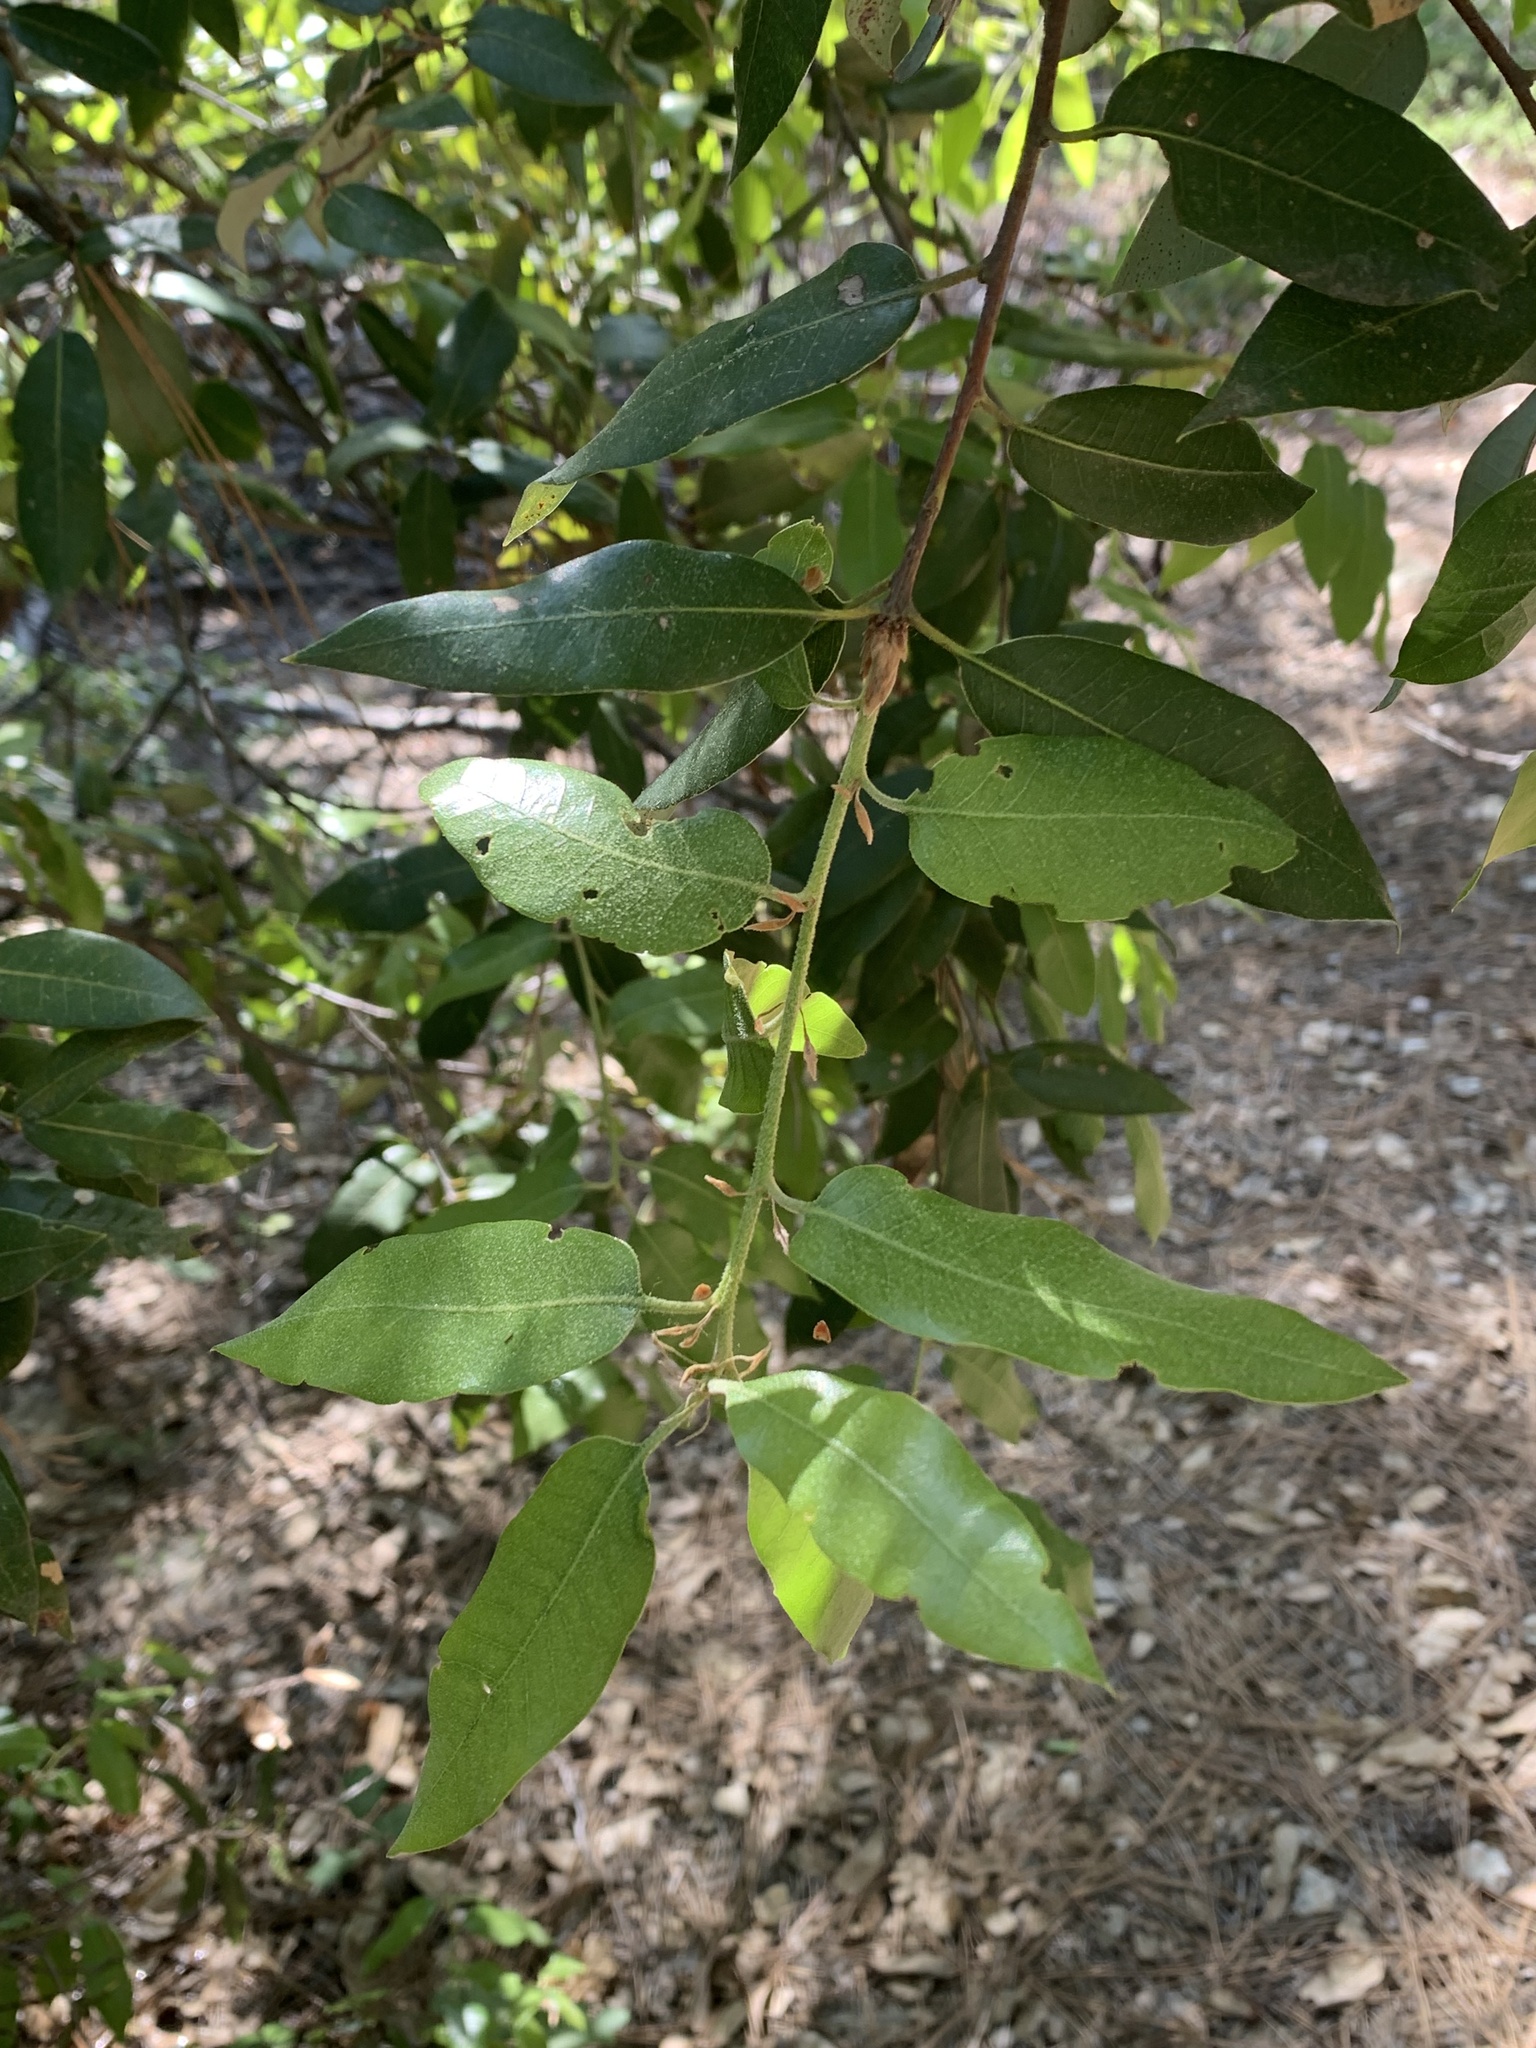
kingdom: Plantae
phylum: Tracheophyta
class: Magnoliopsida
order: Fagales
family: Fagaceae
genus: Quercus
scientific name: Quercus chrysolepis
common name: Canyon live oak
